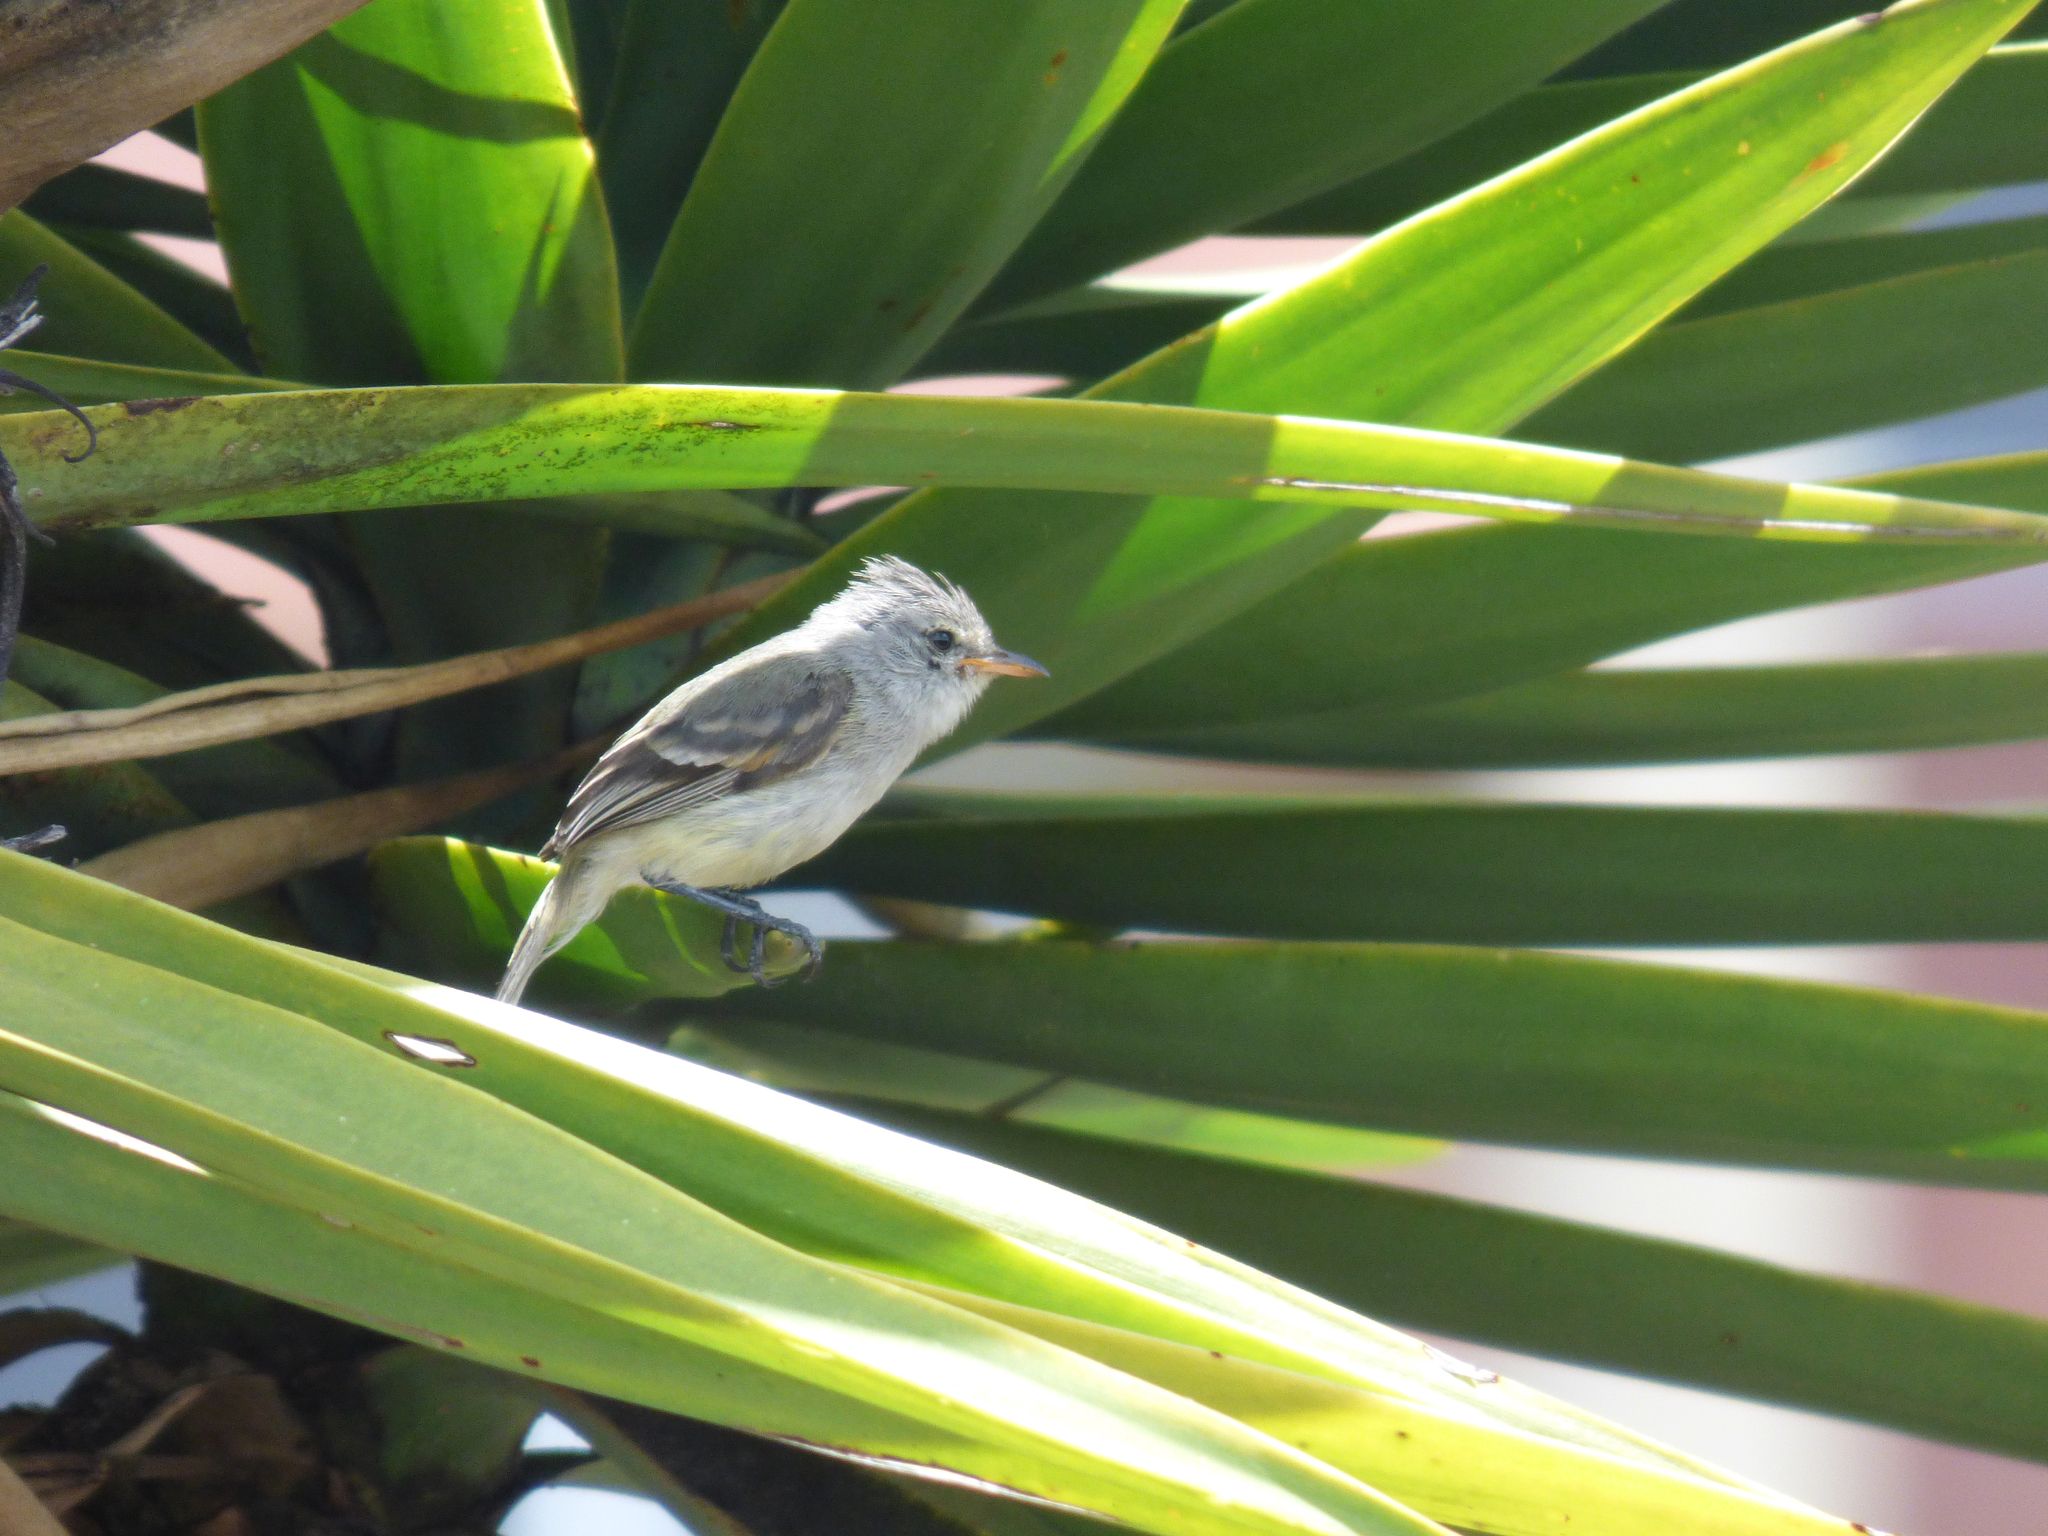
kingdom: Animalia
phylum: Chordata
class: Aves
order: Passeriformes
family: Tyrannidae
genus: Camptostoma
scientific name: Camptostoma obsoletum
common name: Southern beardless-tyrannulet
